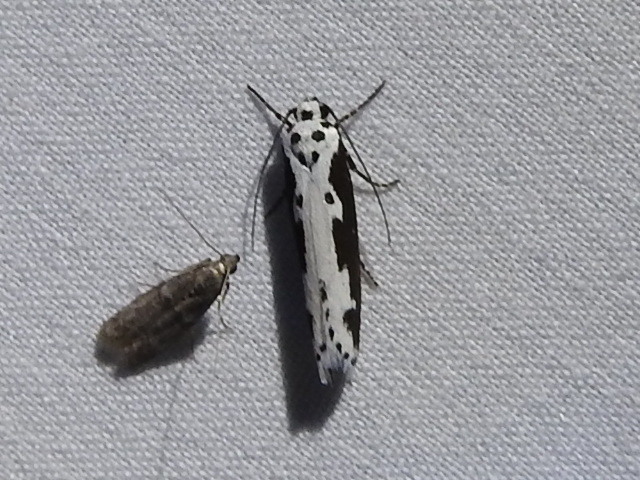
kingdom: Animalia
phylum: Arthropoda
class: Insecta
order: Lepidoptera
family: Ethmiidae
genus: Ethmia
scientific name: Ethmia semilugens
